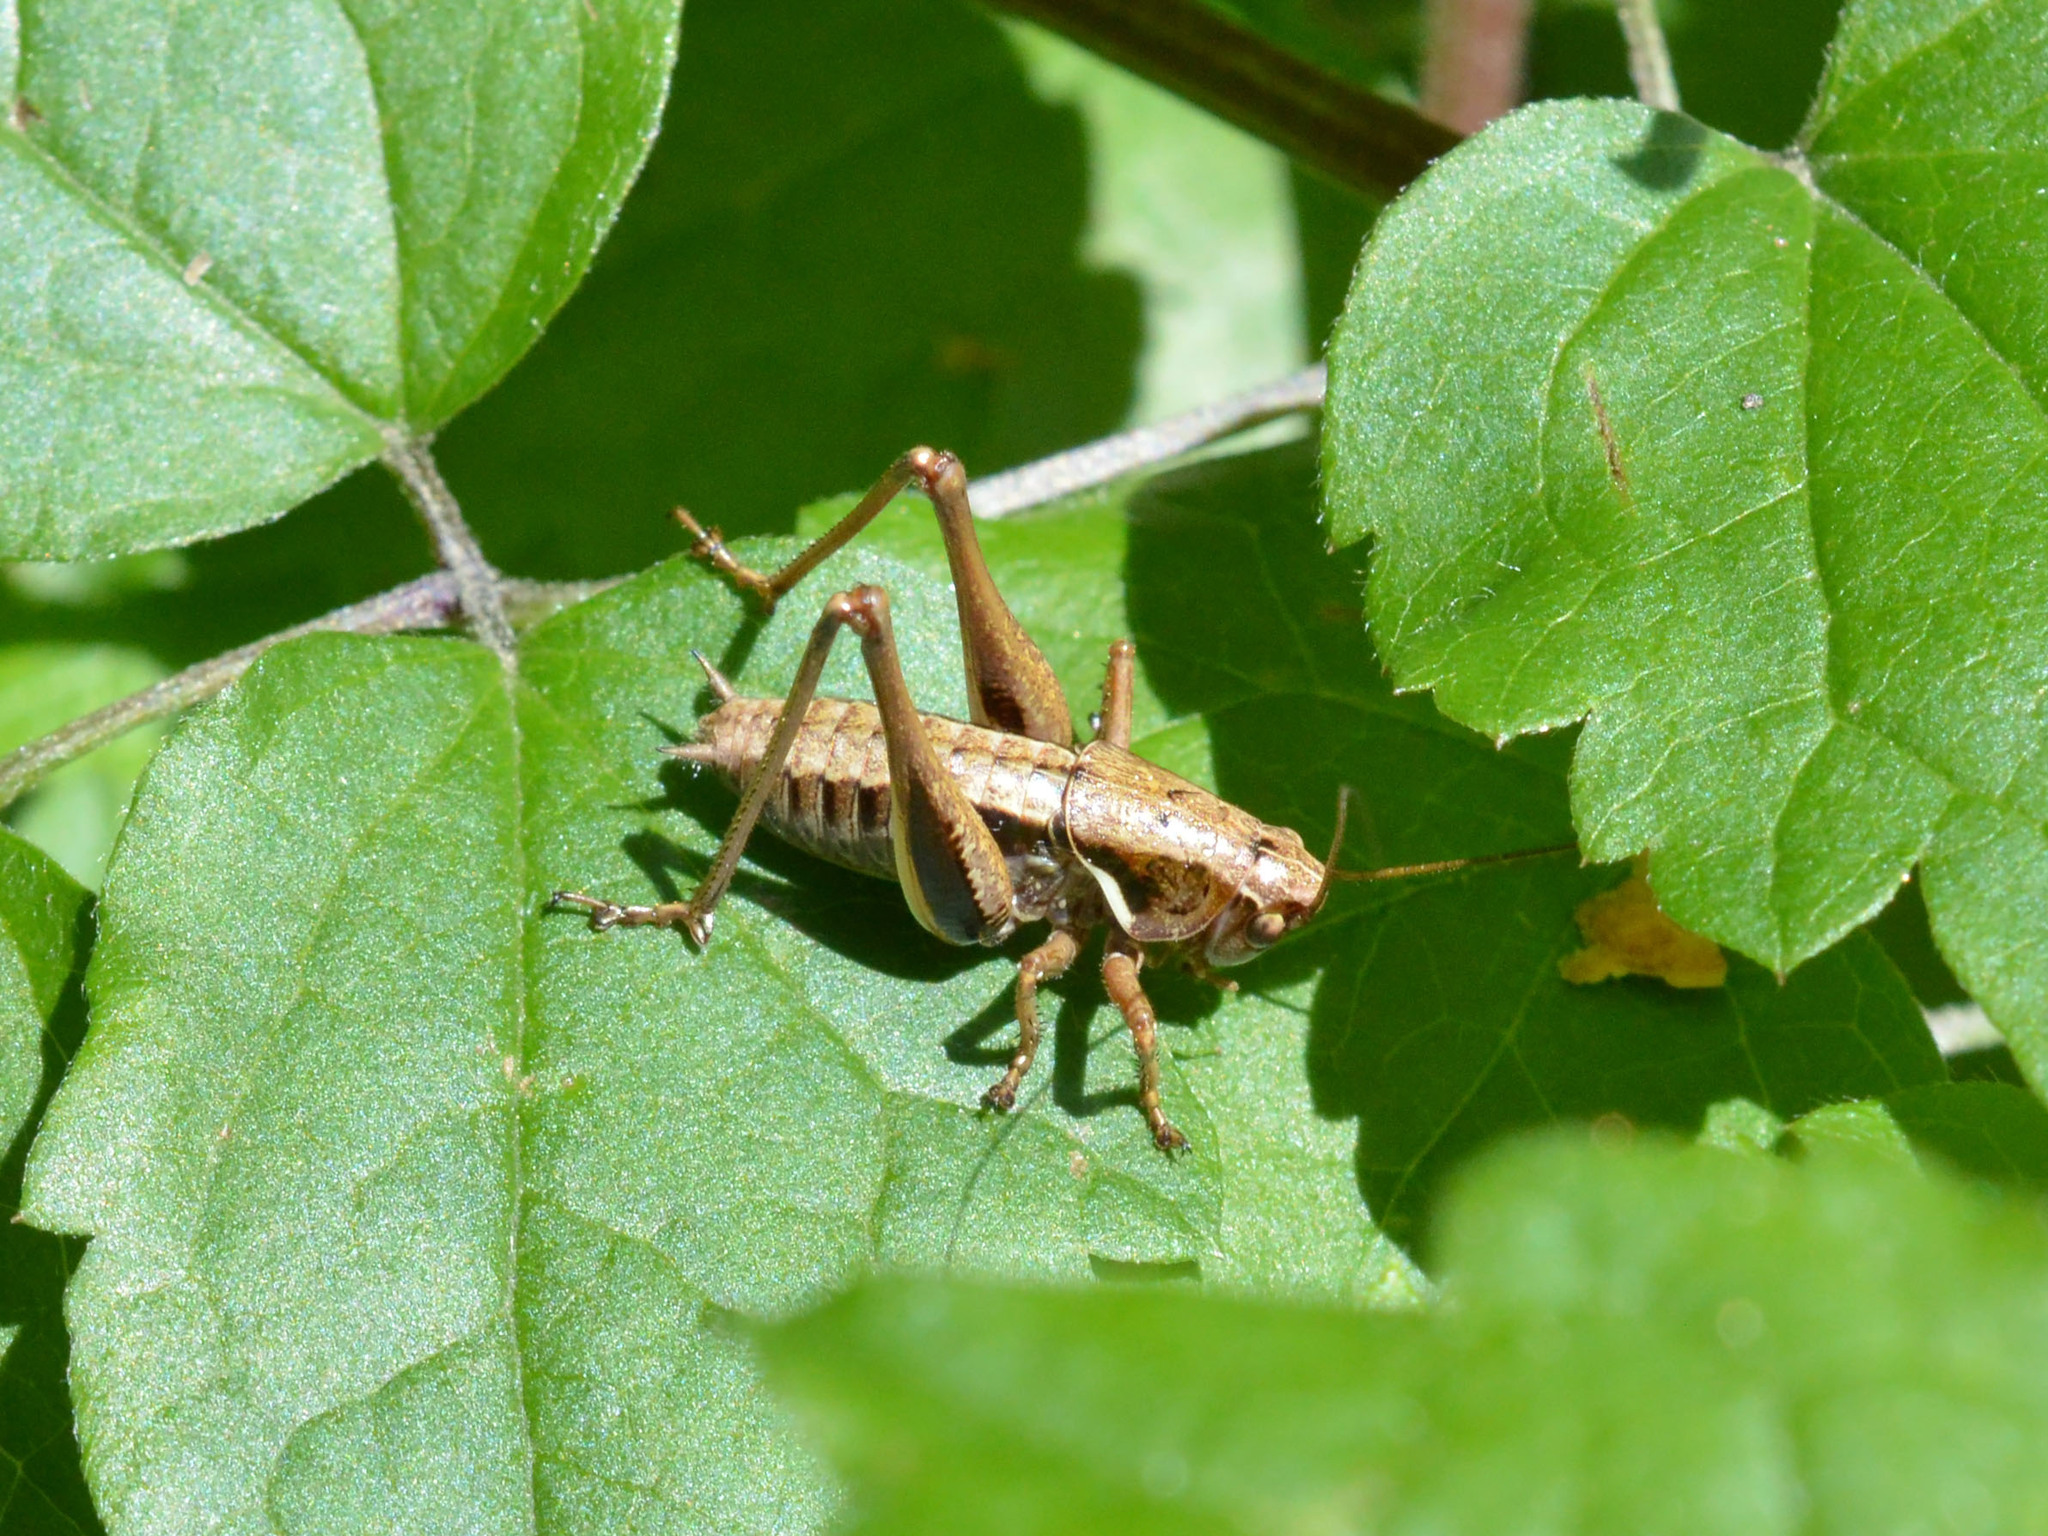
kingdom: Animalia
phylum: Arthropoda
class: Insecta
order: Orthoptera
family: Tettigoniidae
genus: Pholidoptera
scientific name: Pholidoptera aptera
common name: Alpine dark bush-cricket
